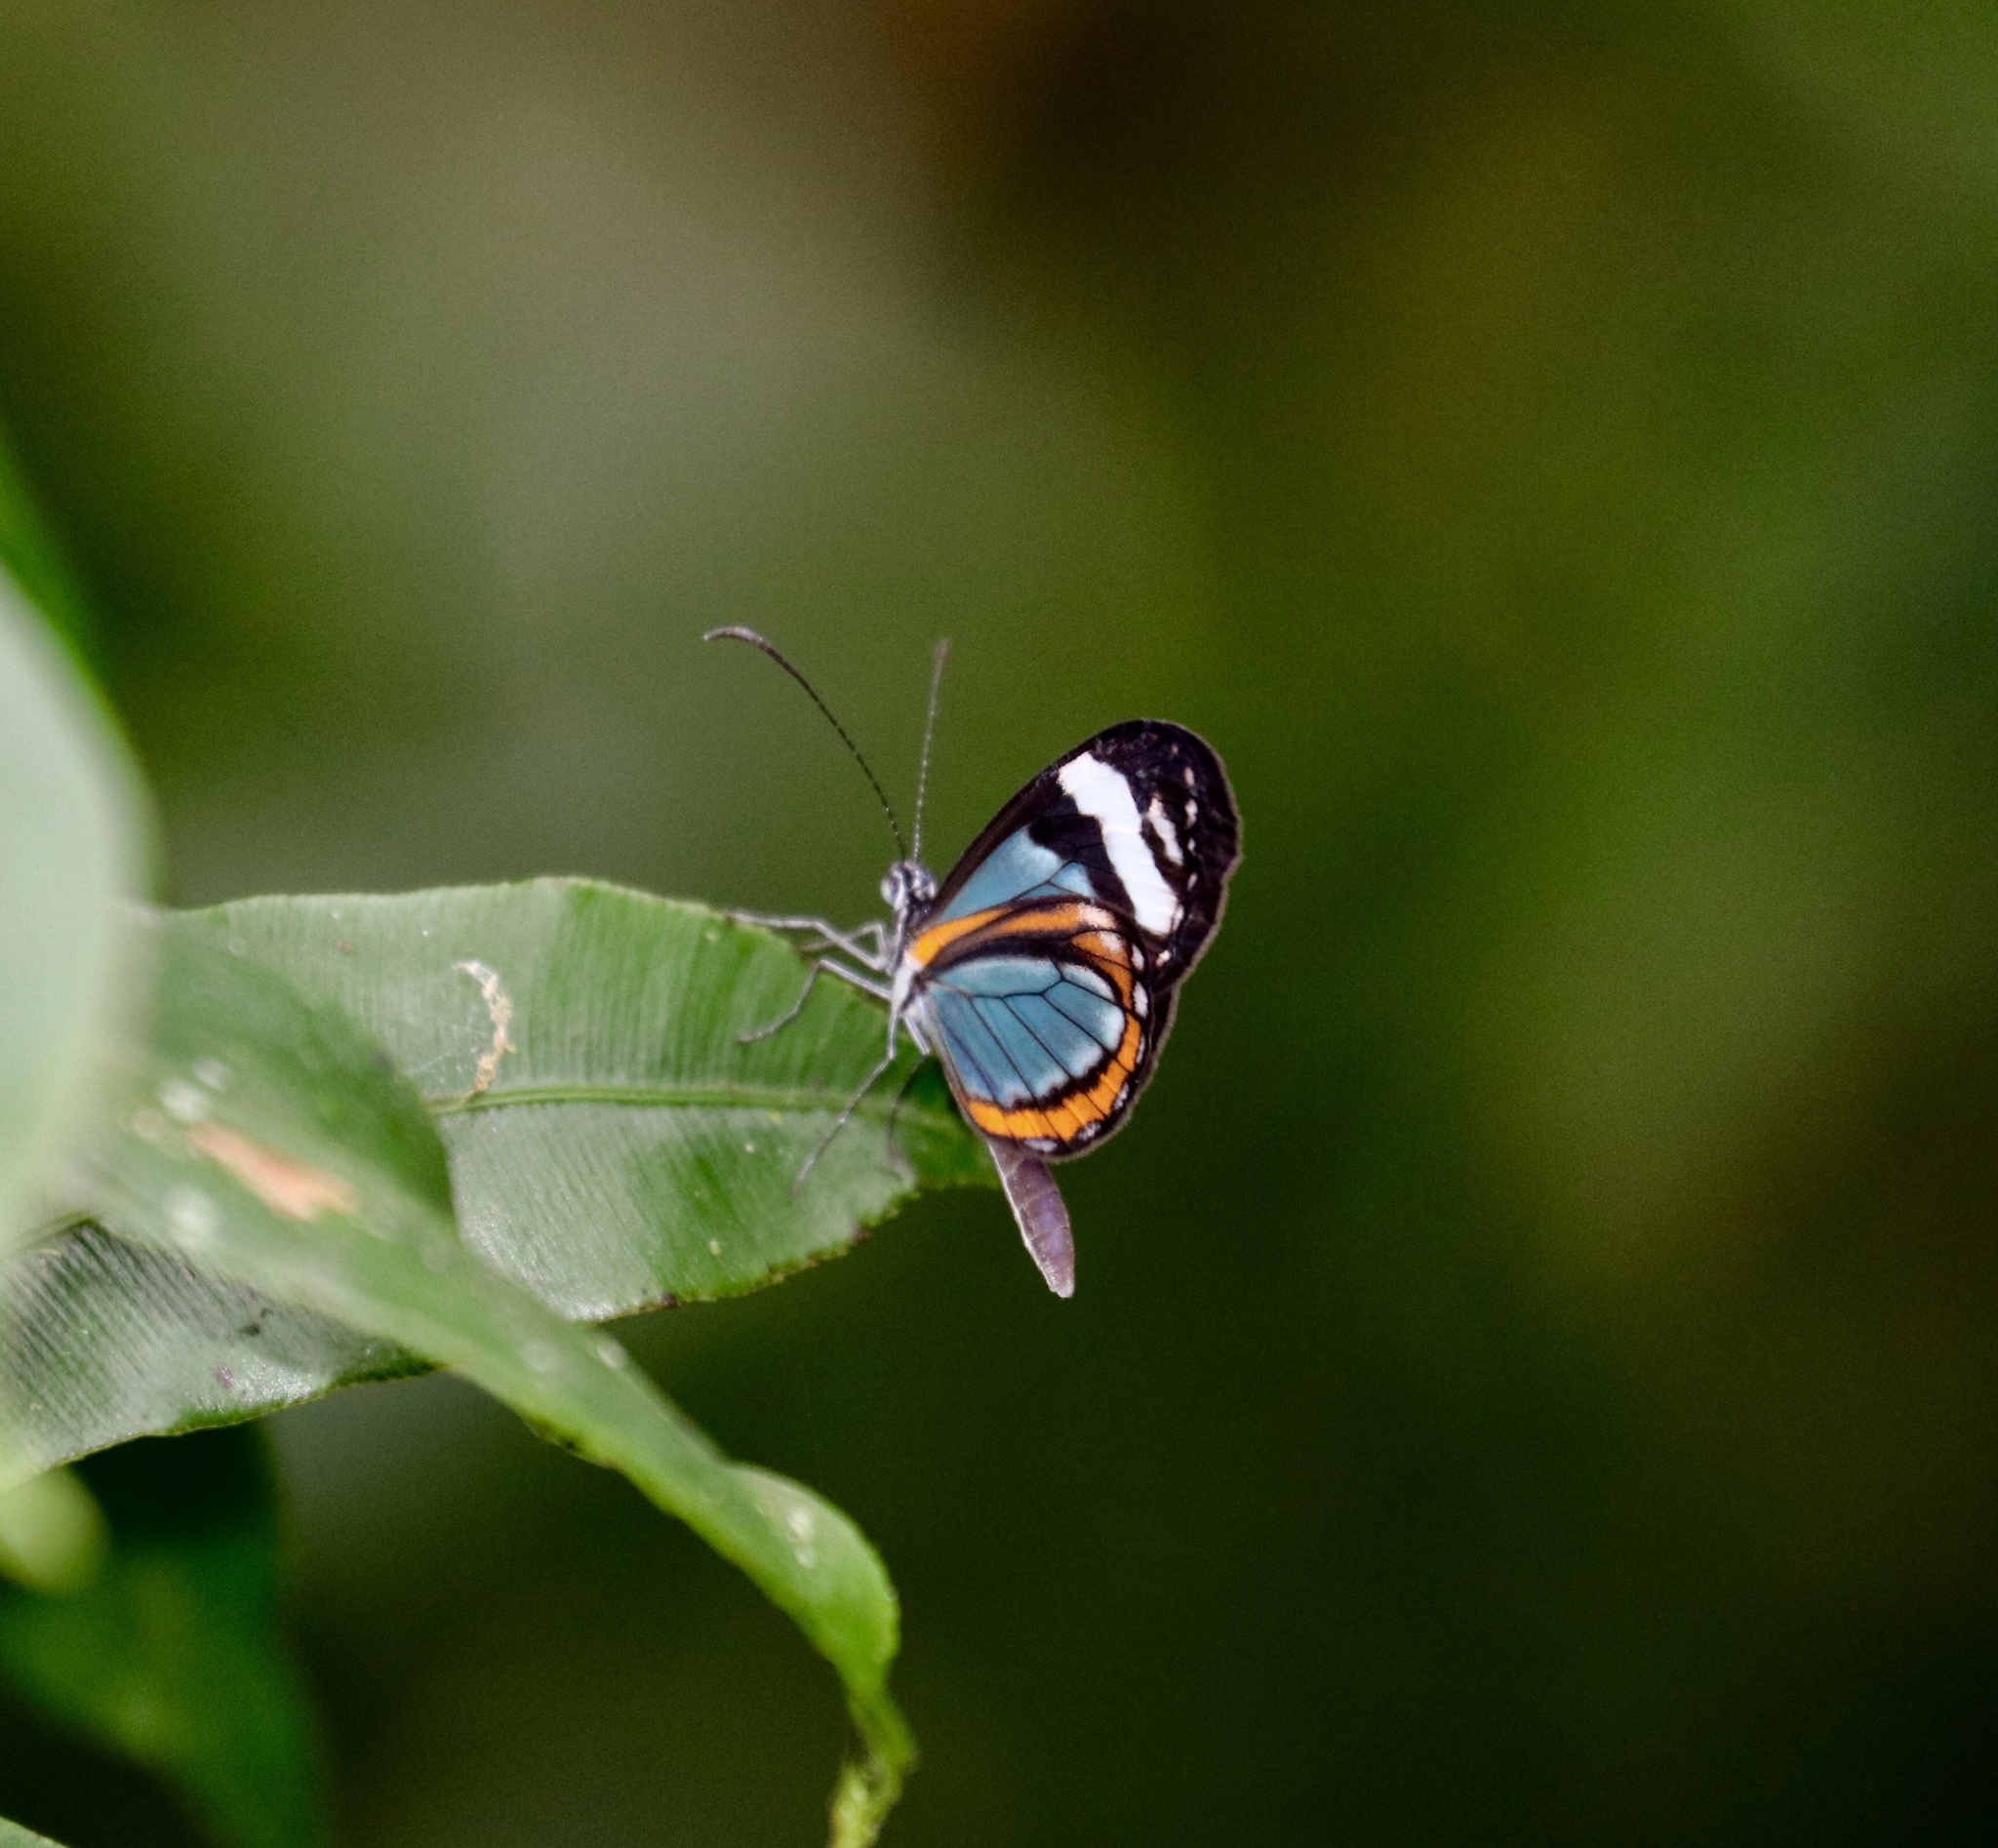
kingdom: Animalia
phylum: Arthropoda
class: Insecta
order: Lepidoptera
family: Pieridae
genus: Dismorphia
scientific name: Dismorphia theucharila
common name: Clearwing mimic-white
